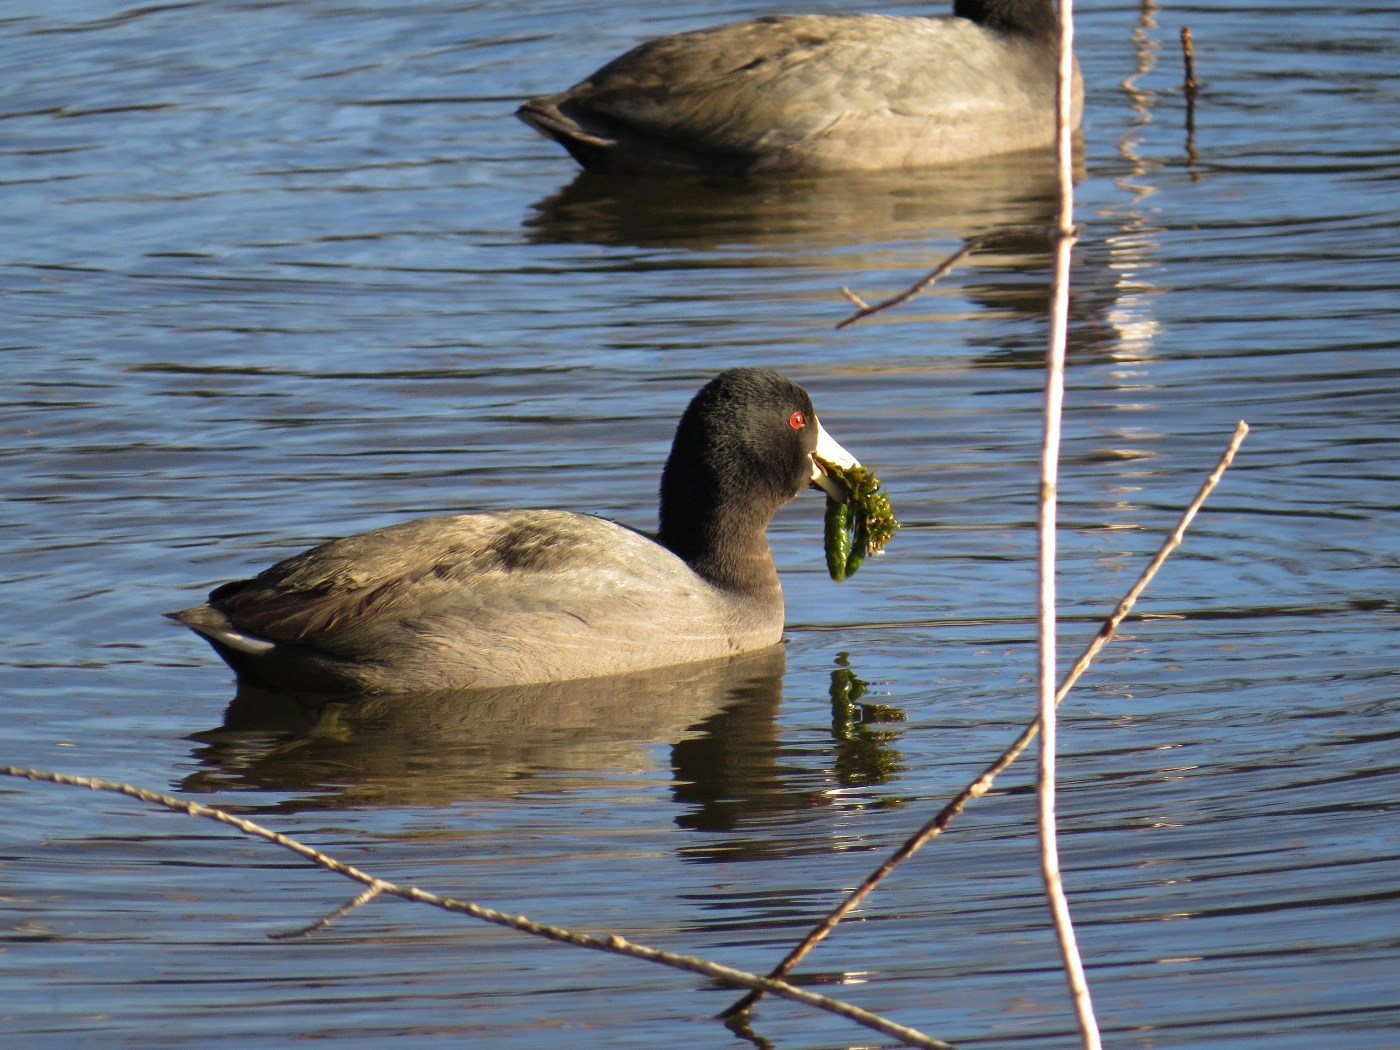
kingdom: Animalia
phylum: Chordata
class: Aves
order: Gruiformes
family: Rallidae
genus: Fulica
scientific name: Fulica americana
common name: American coot
